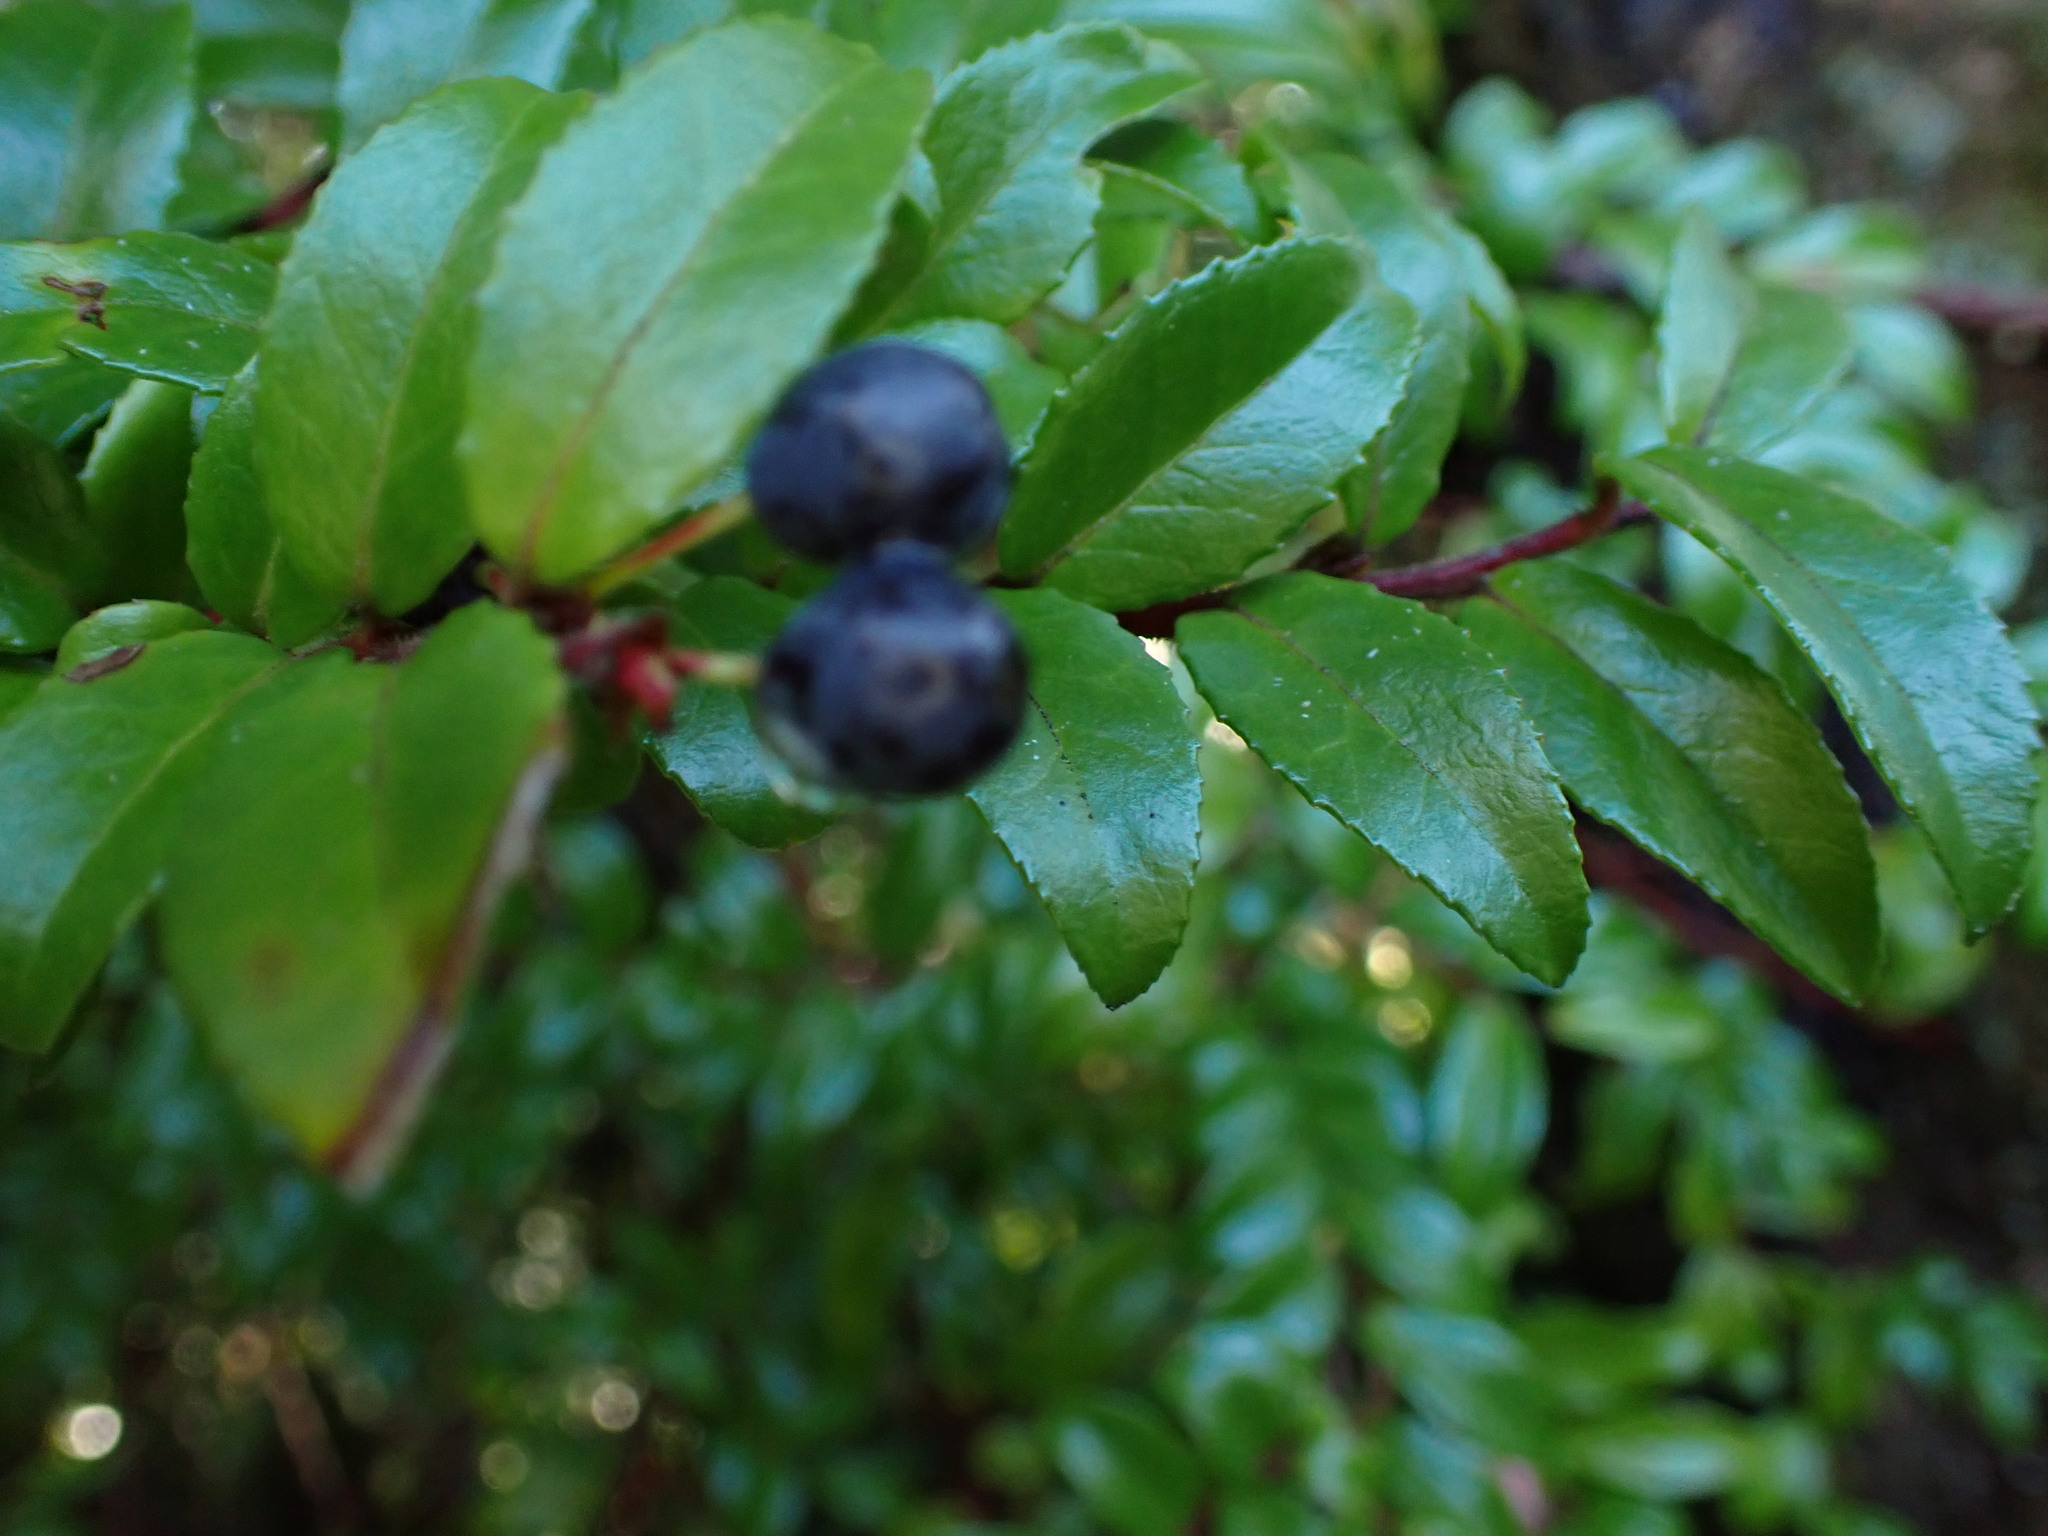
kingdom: Plantae
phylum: Tracheophyta
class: Magnoliopsida
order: Ericales
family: Ericaceae
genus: Vaccinium
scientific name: Vaccinium ovatum
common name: California-huckleberry
